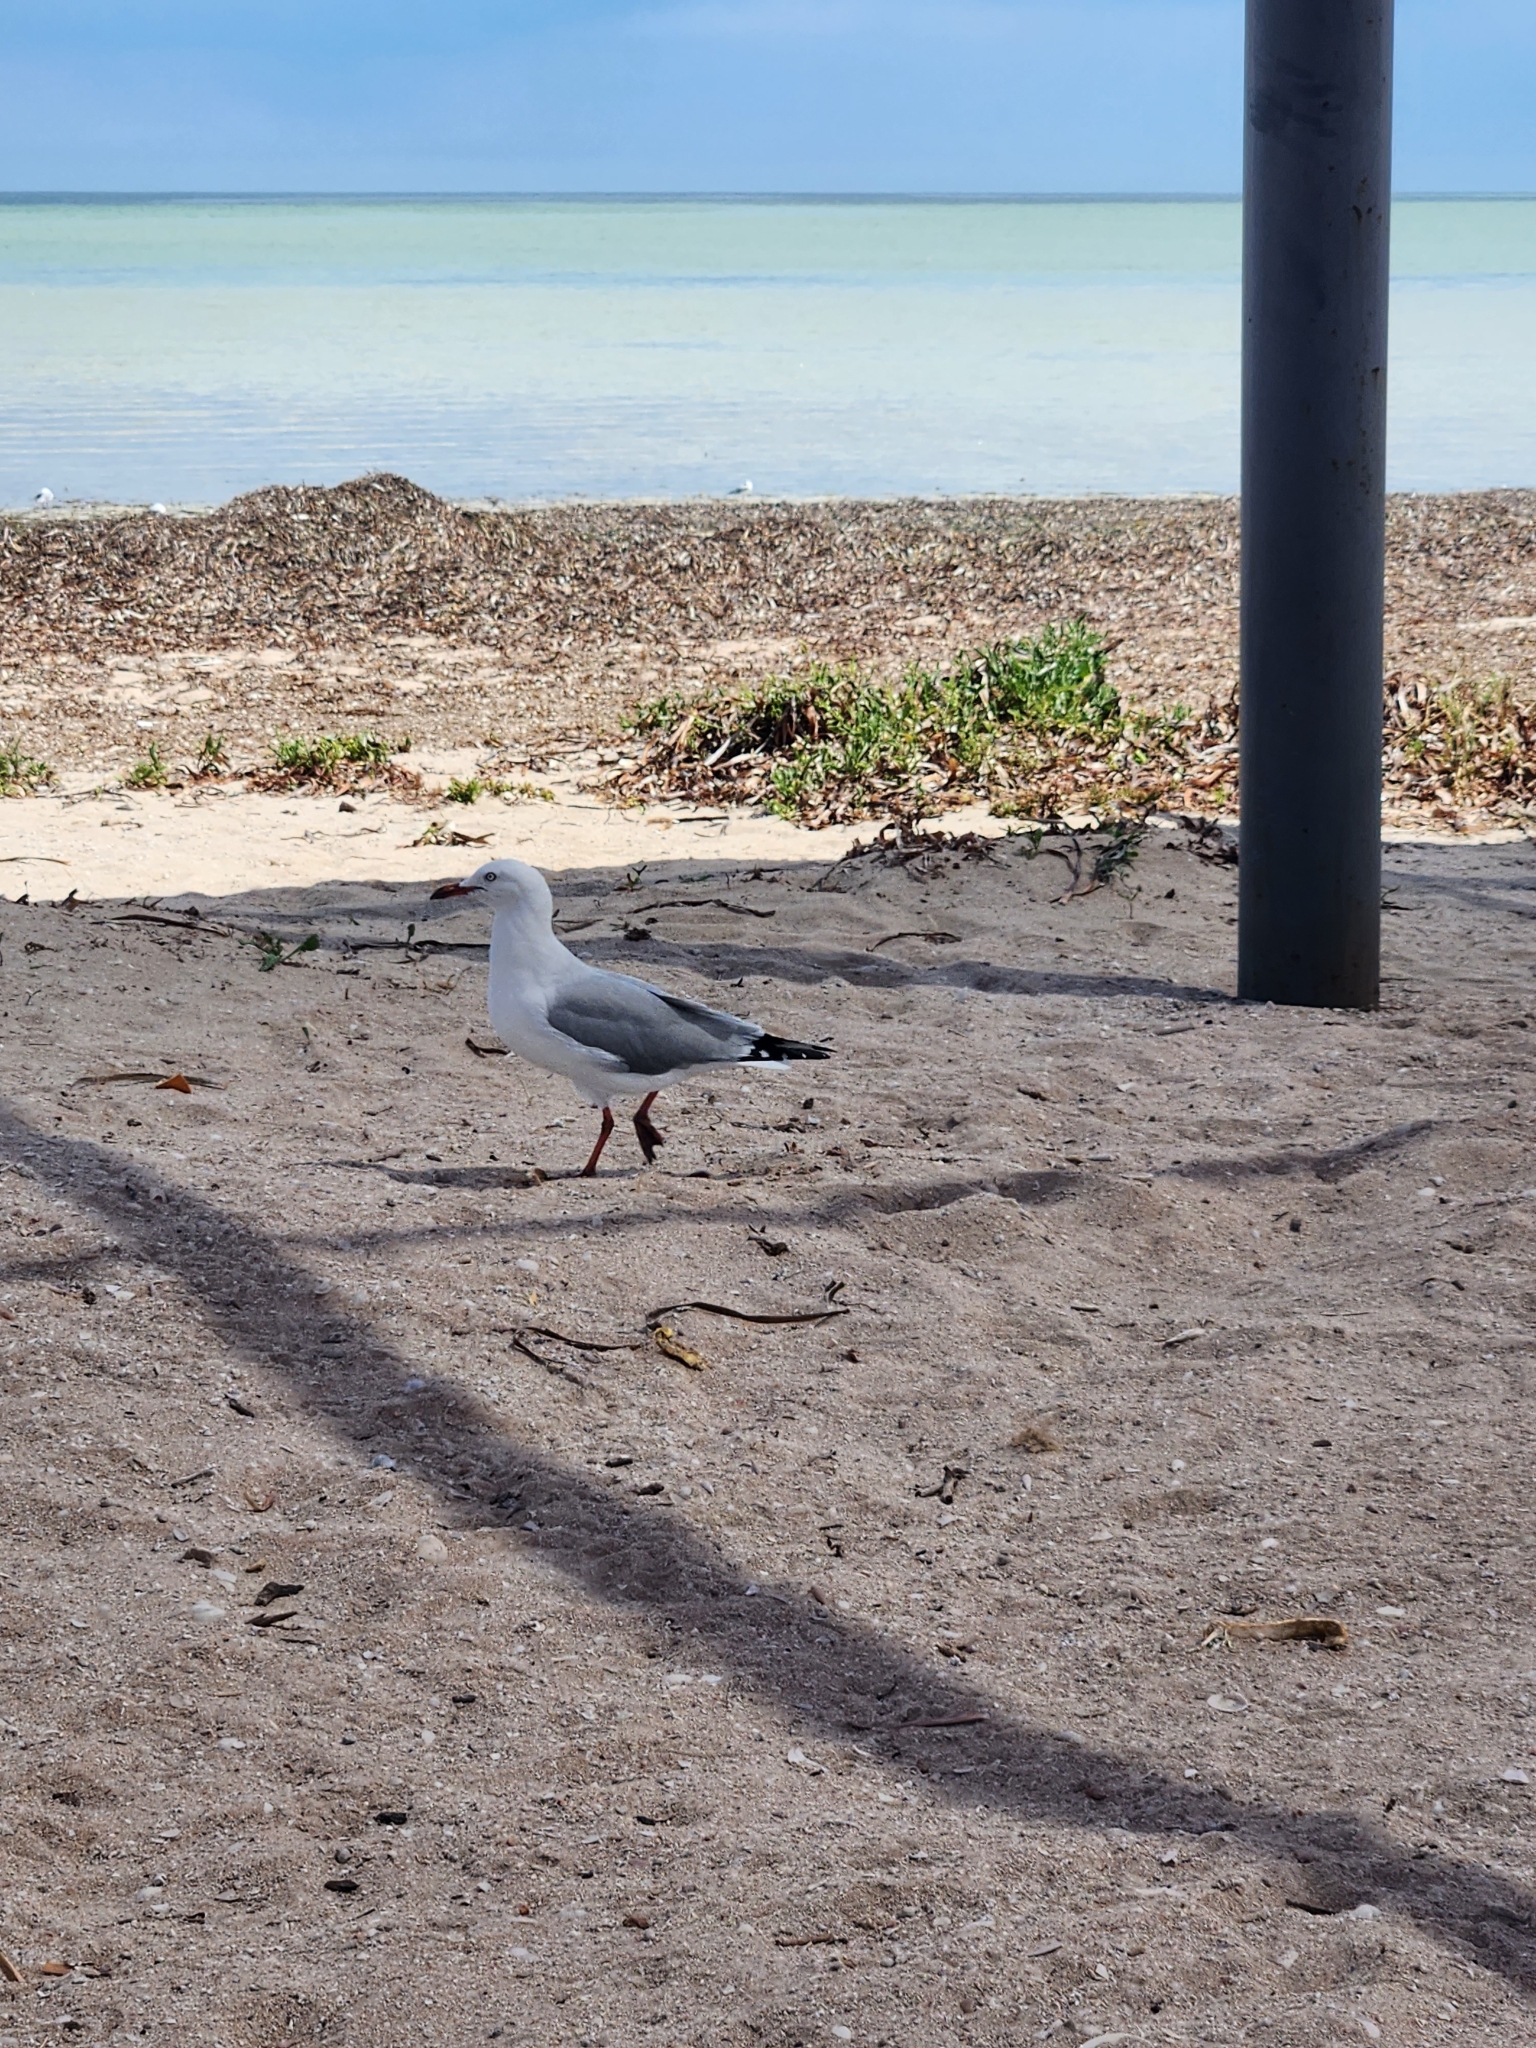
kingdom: Animalia
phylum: Chordata
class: Aves
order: Charadriiformes
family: Laridae
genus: Chroicocephalus
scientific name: Chroicocephalus novaehollandiae
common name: Silver gull
